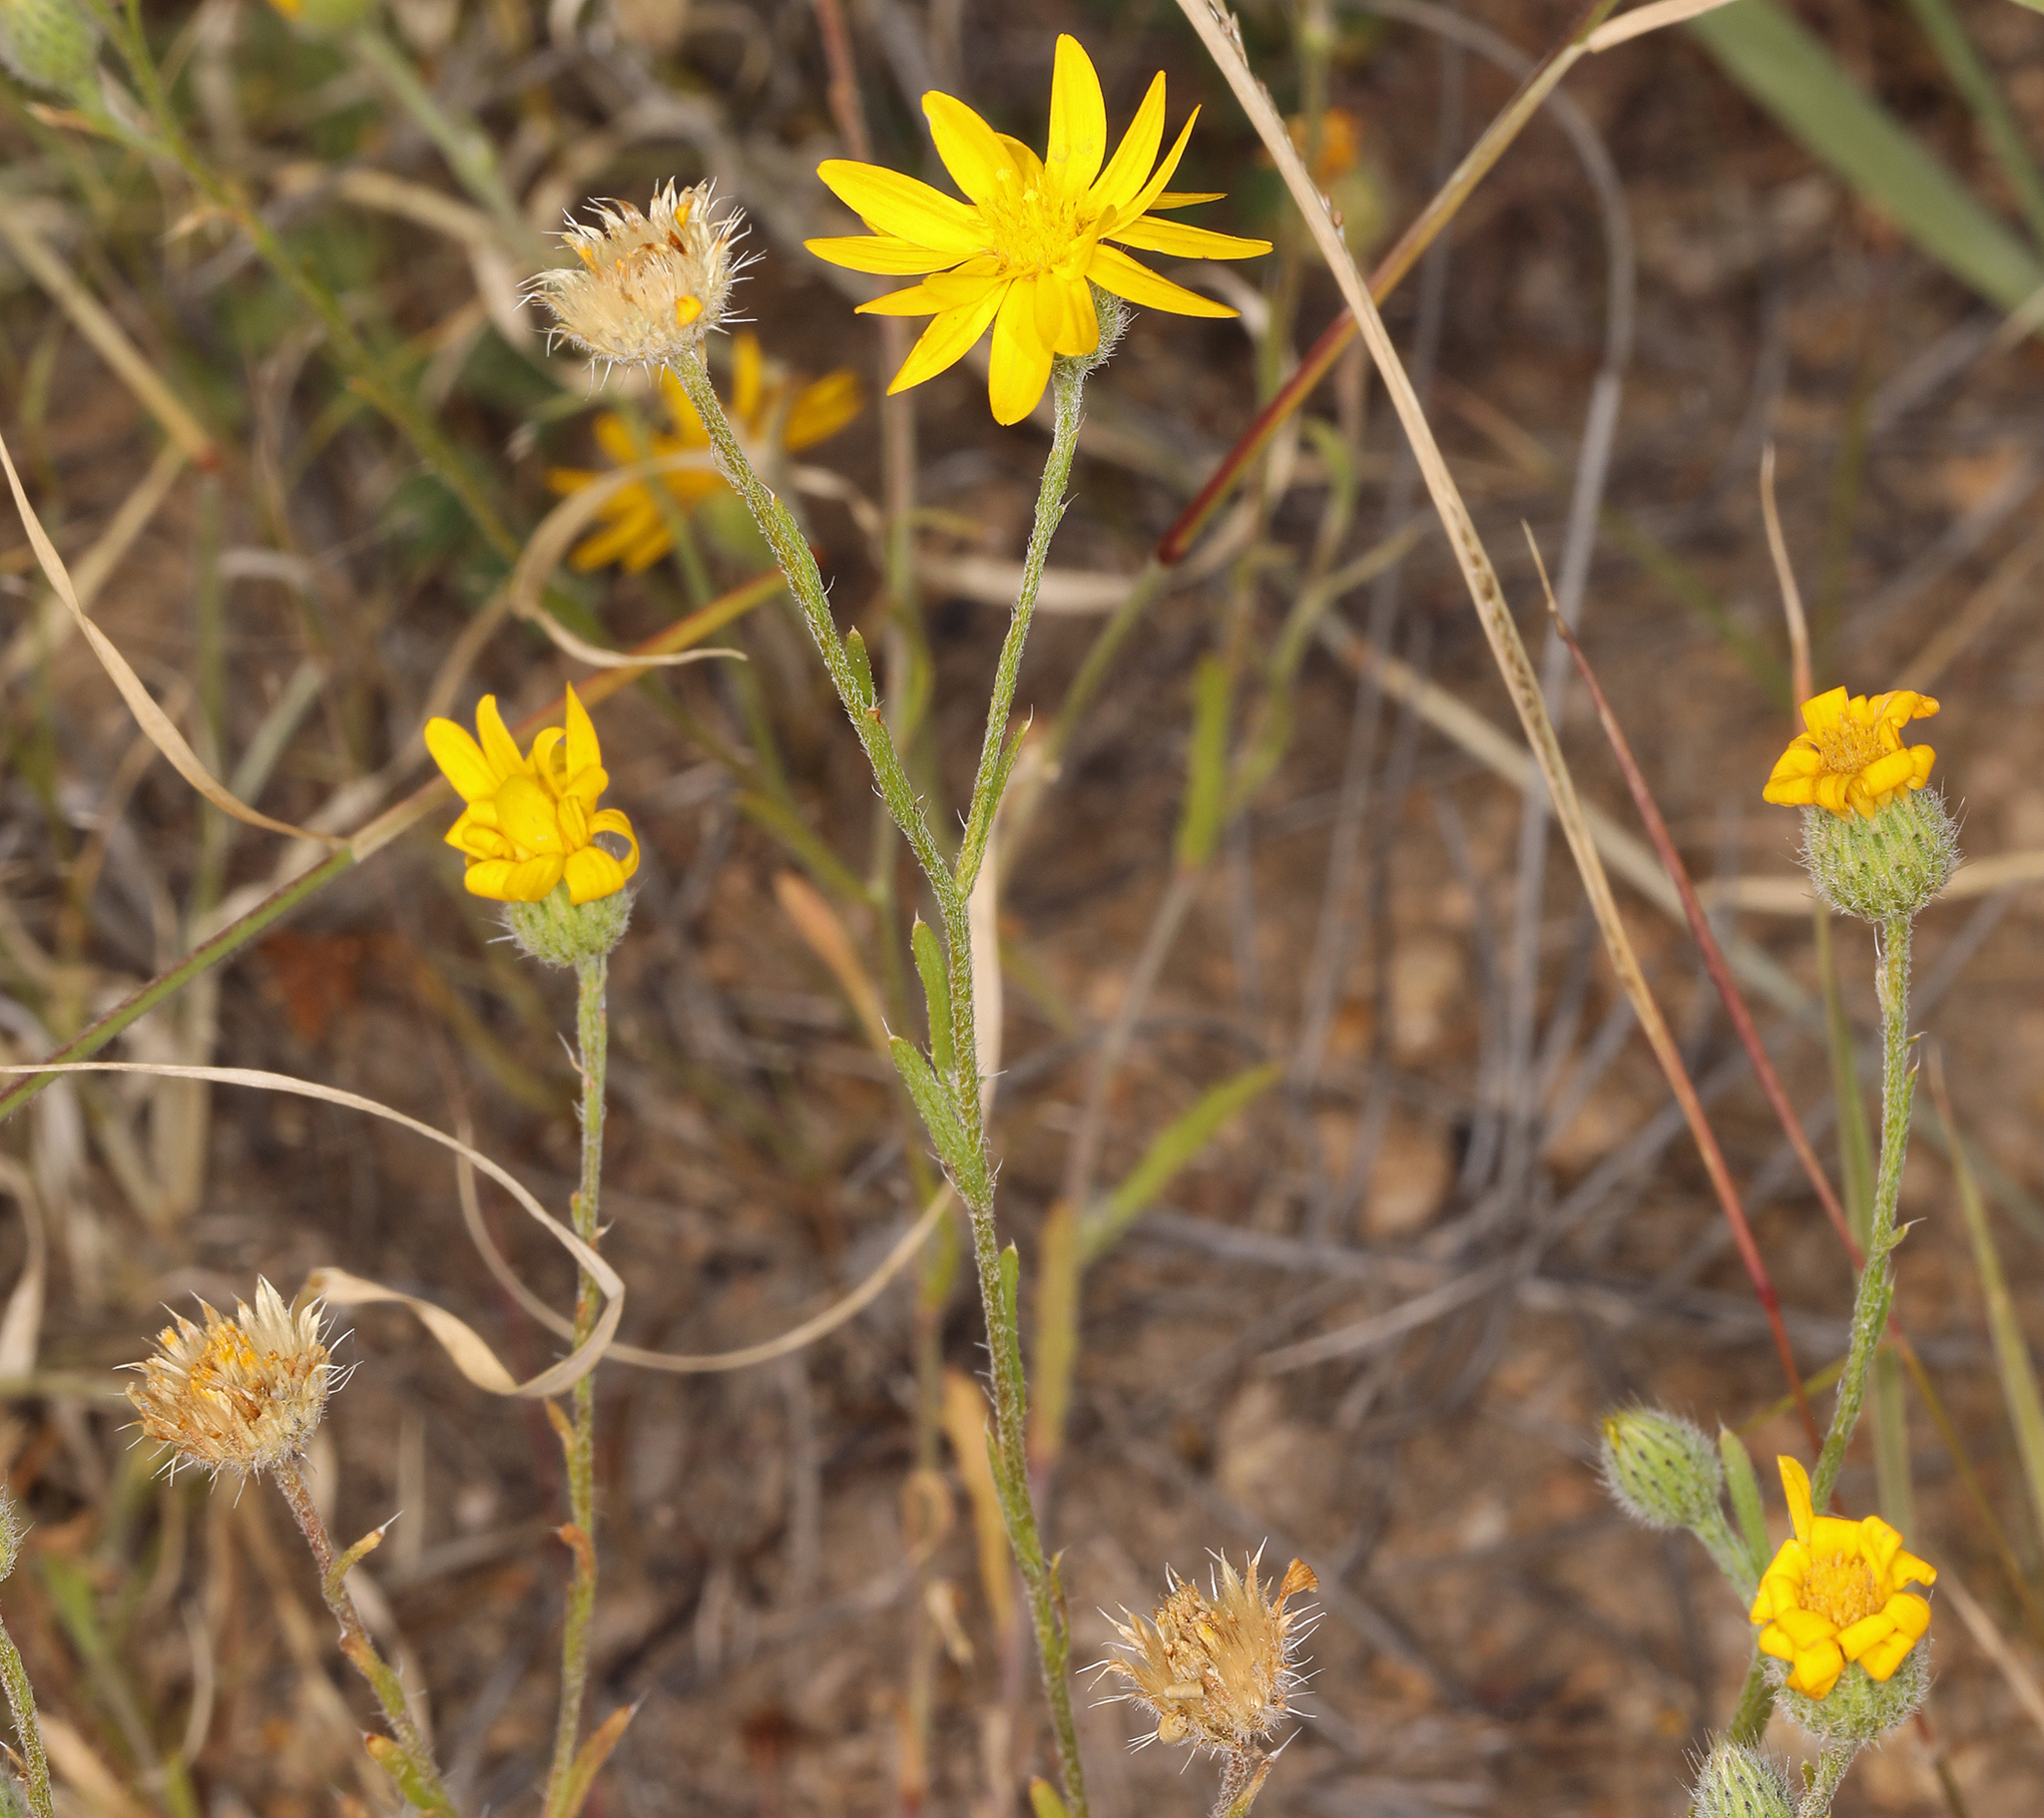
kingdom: Plantae
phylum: Tracheophyta
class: Magnoliopsida
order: Asterales
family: Asteraceae
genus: Xanthisma
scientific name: Xanthisma gracile
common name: Slender goldenweed
